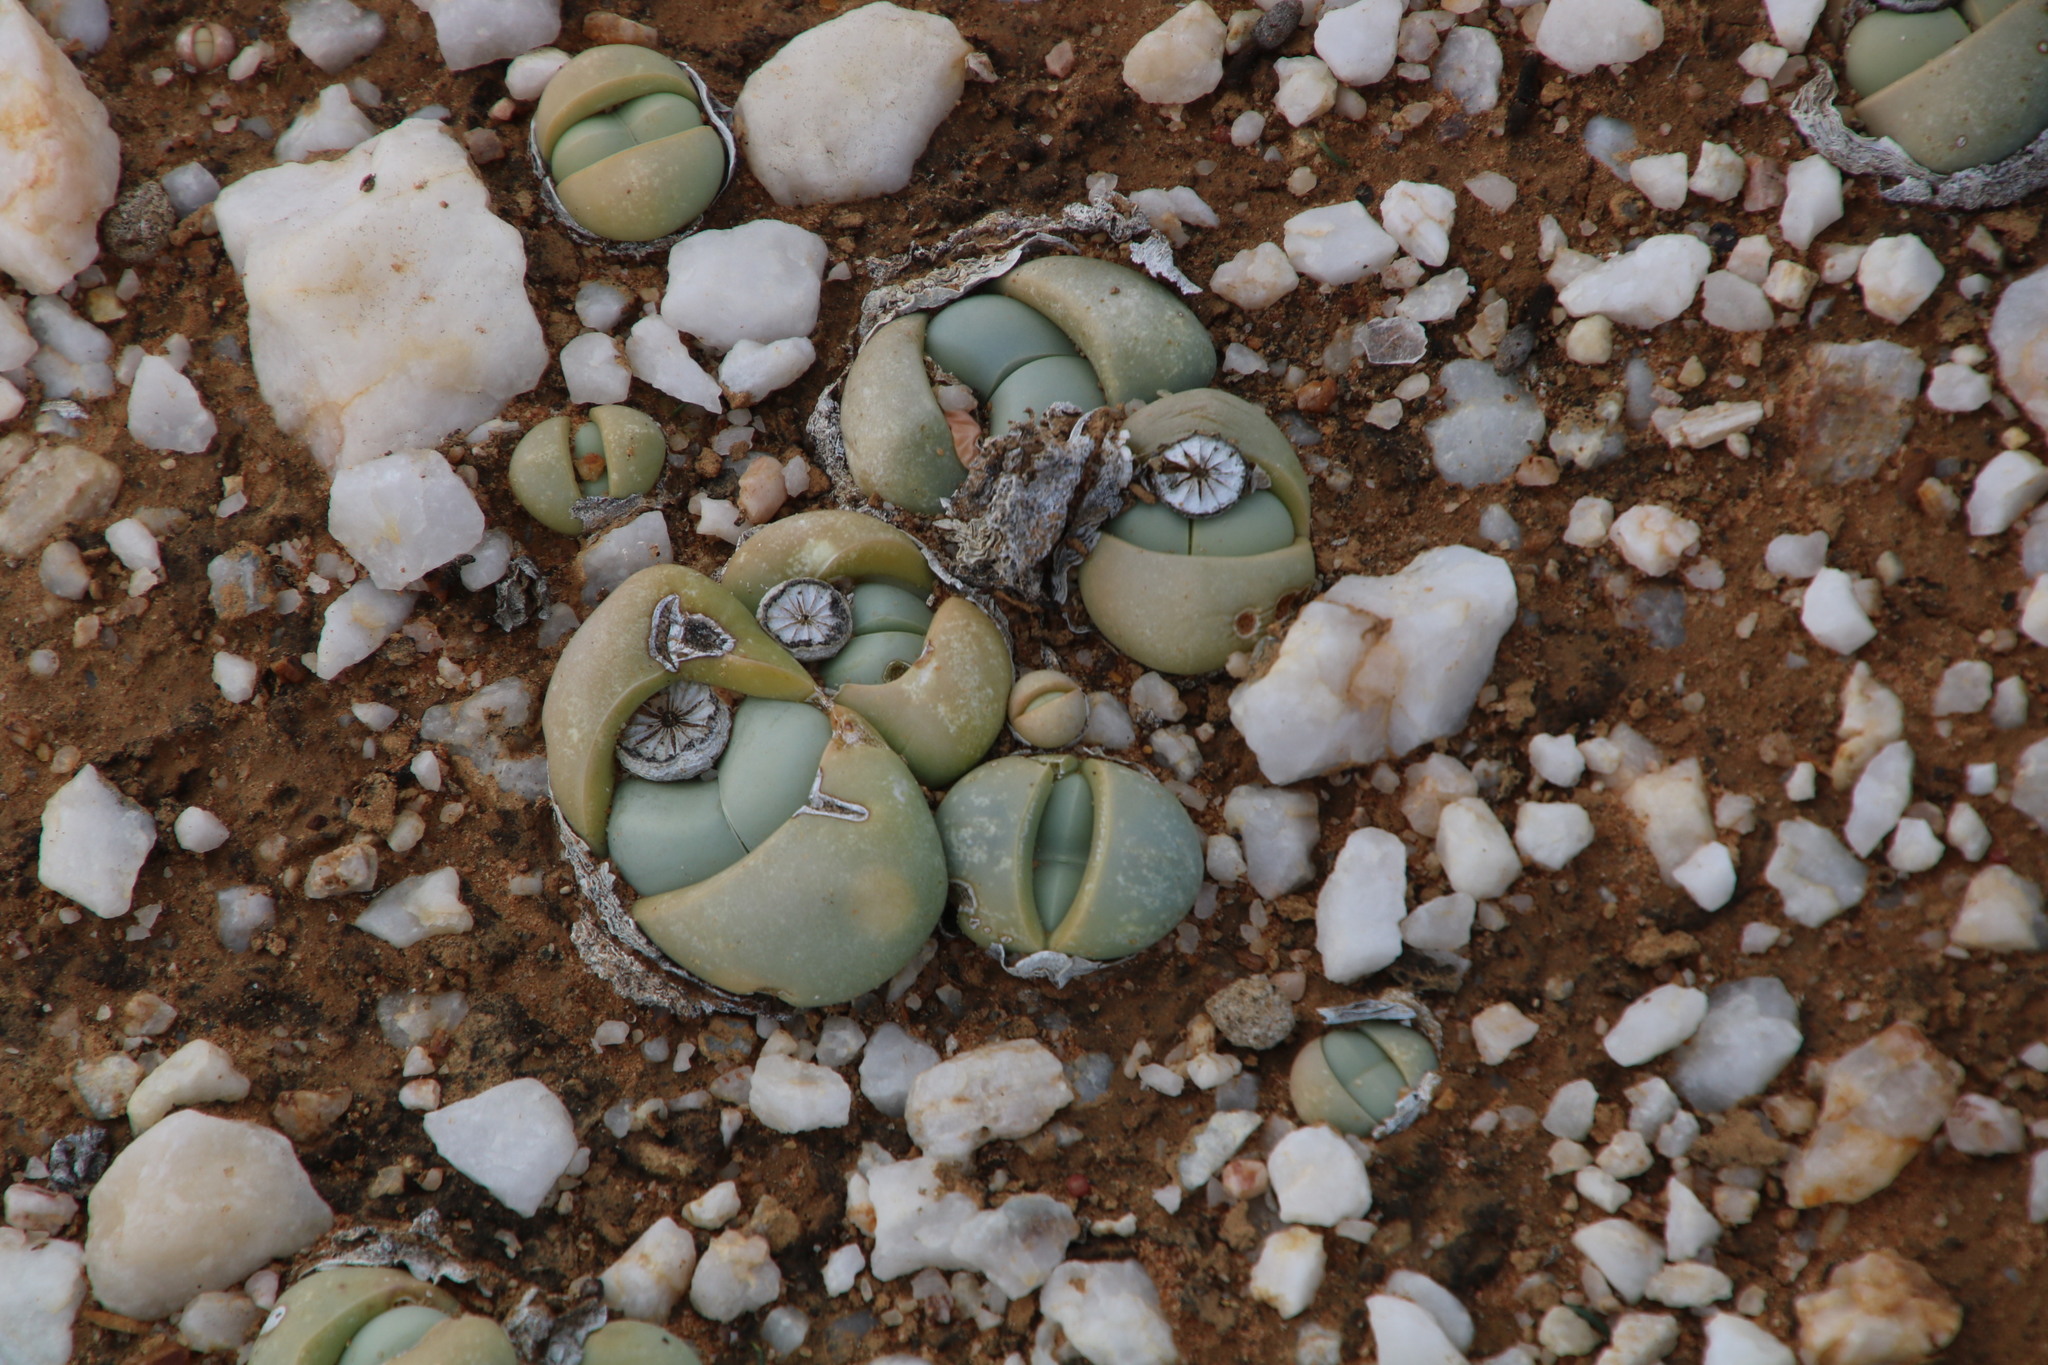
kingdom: Plantae
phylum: Tracheophyta
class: Magnoliopsida
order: Caryophyllales
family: Aizoaceae
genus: Argyroderma
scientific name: Argyroderma delaetii
